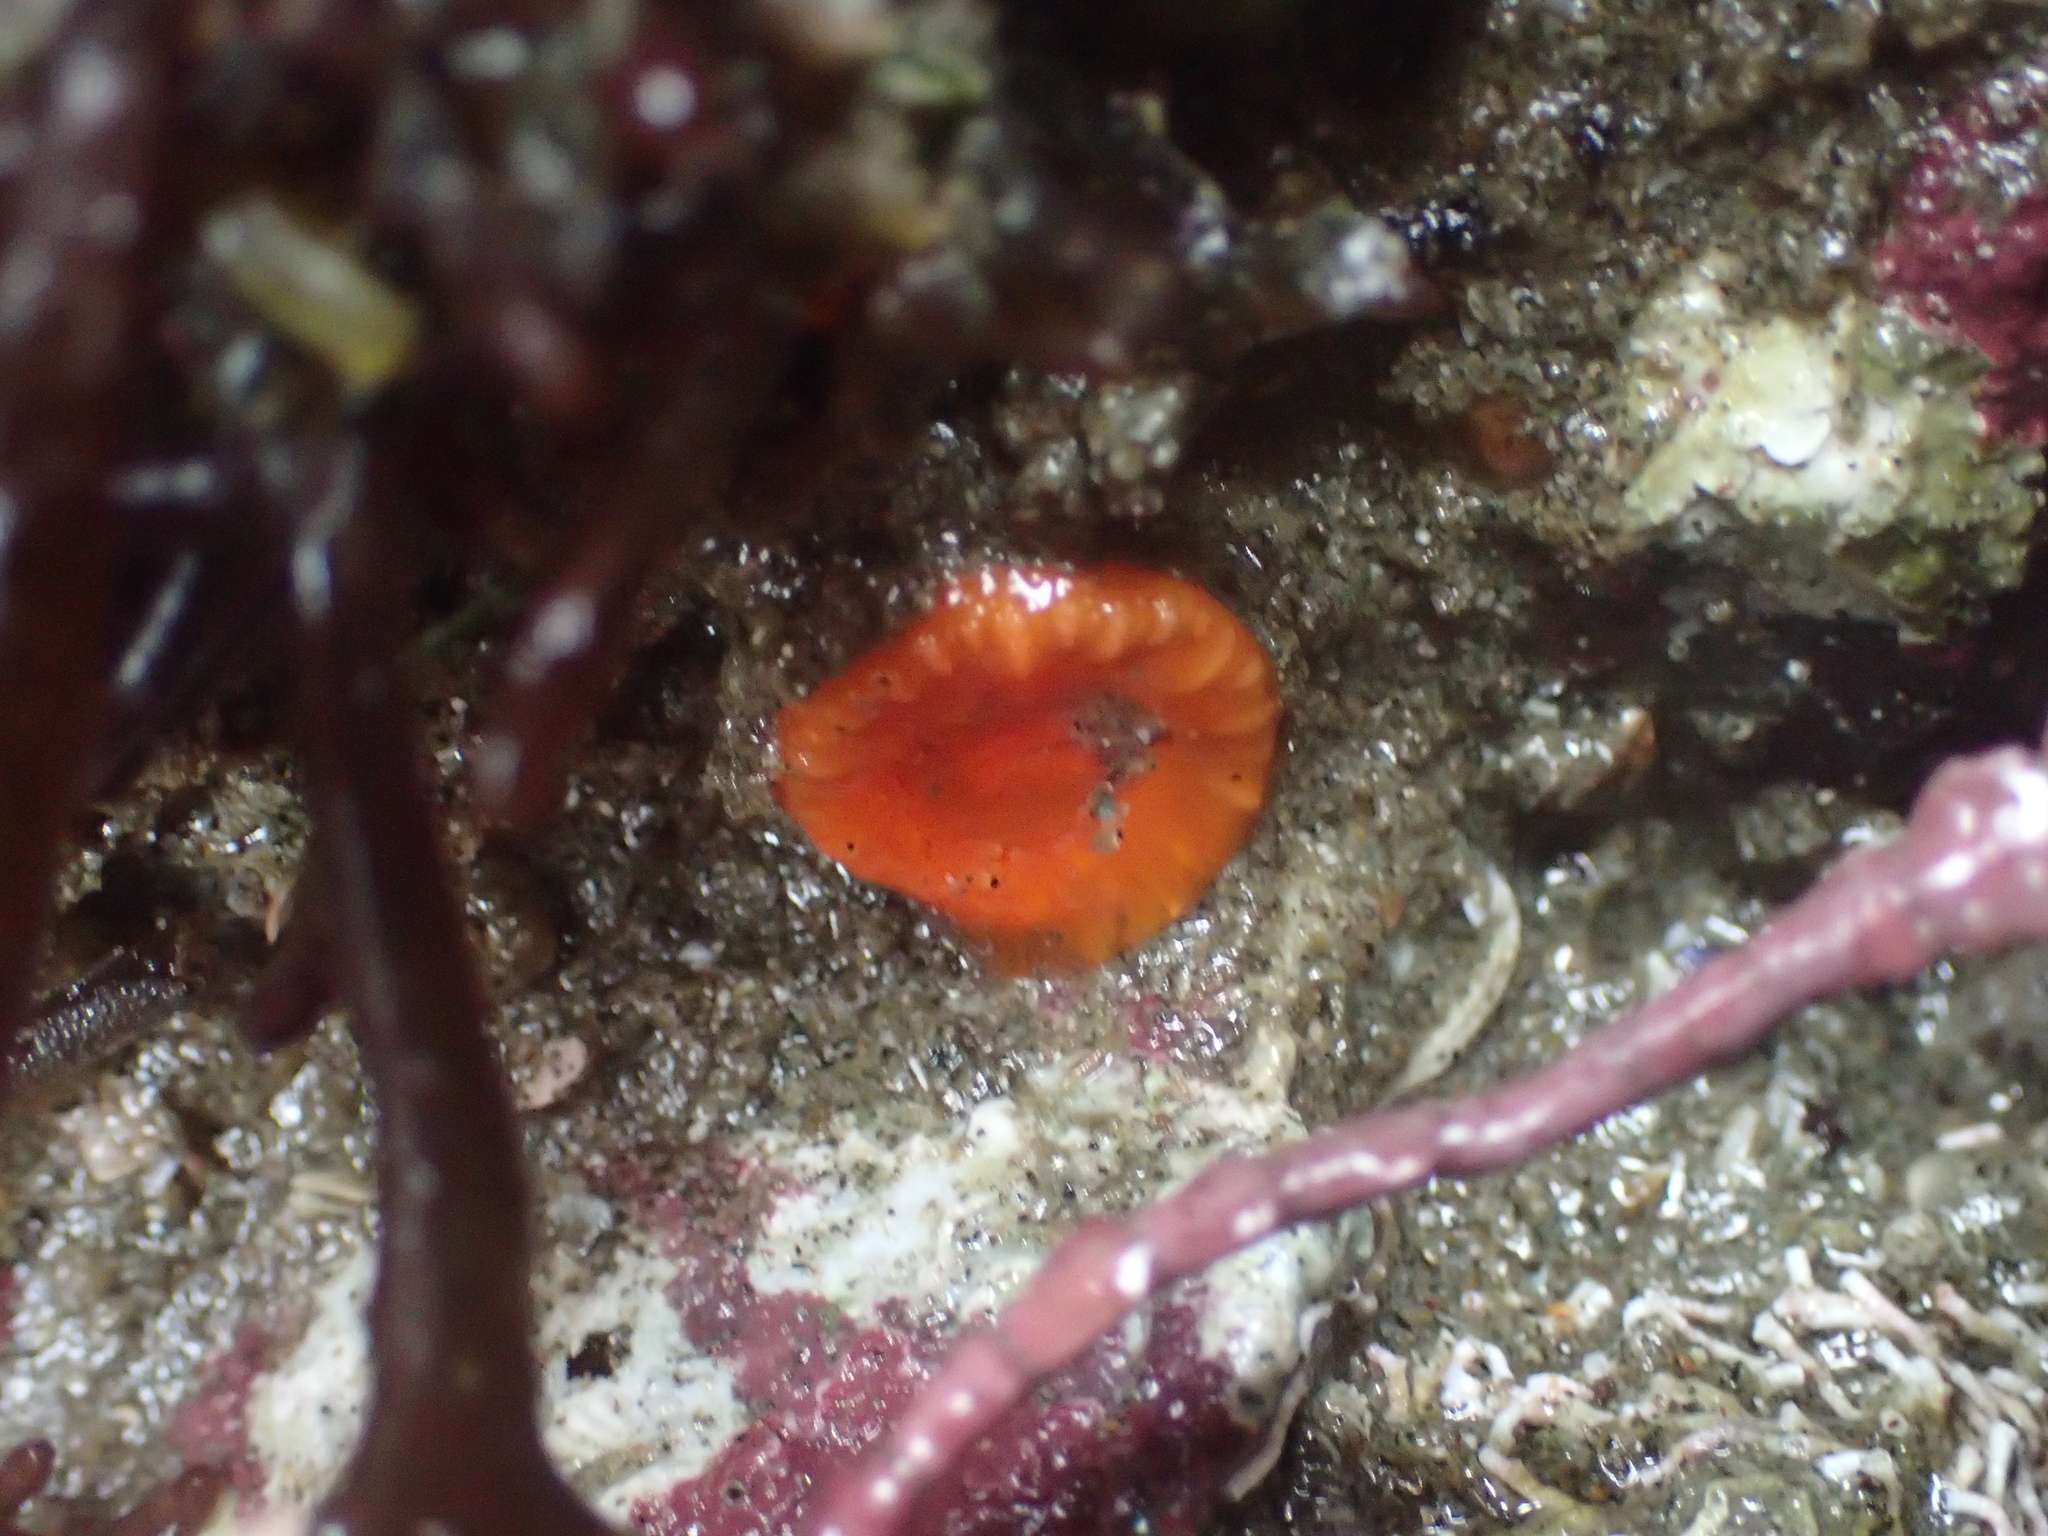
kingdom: Animalia
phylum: Cnidaria
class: Anthozoa
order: Scleractinia
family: Dendrophylliidae
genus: Balanophyllia
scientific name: Balanophyllia elegans
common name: Orange stony coral
